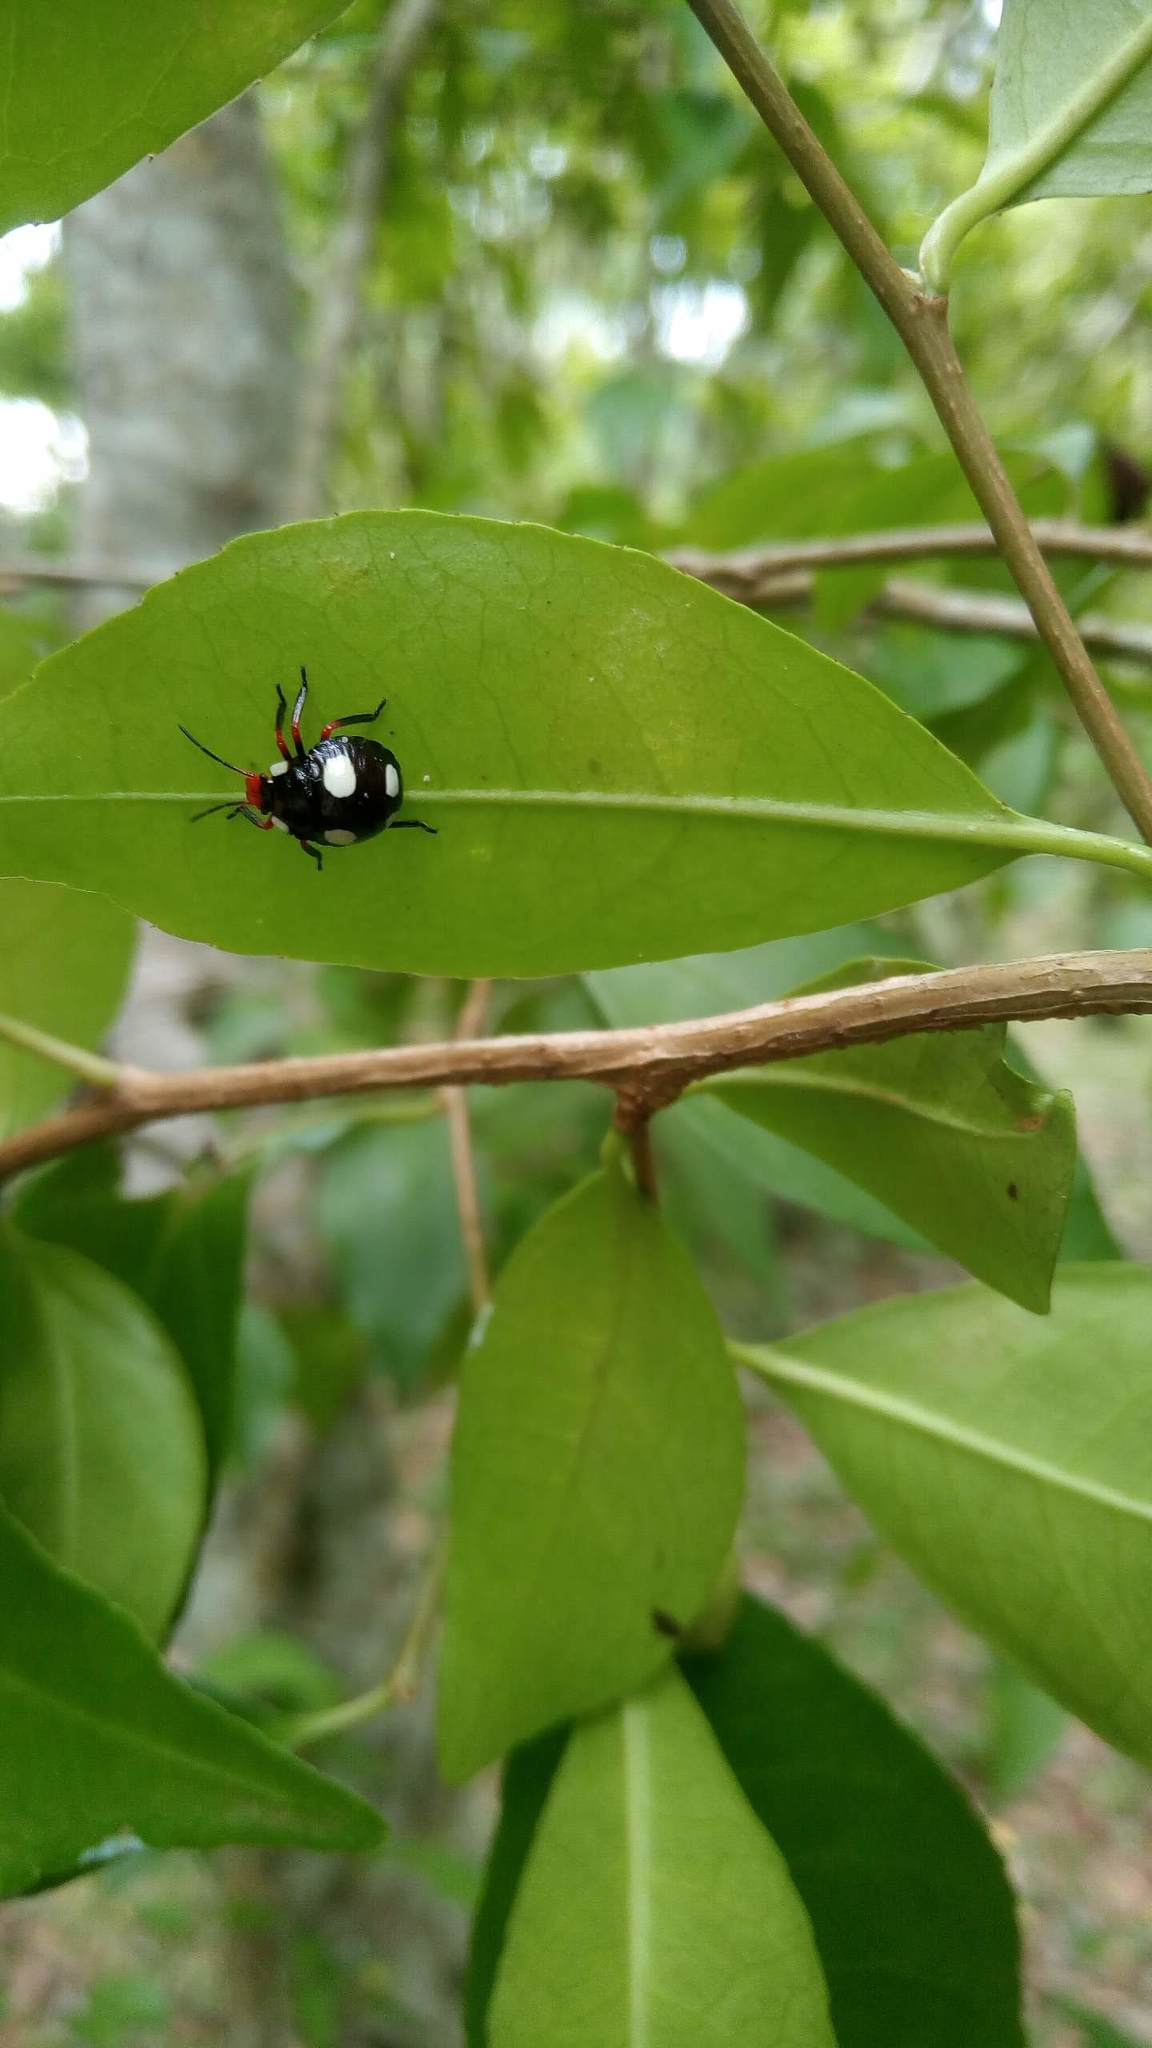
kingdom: Animalia
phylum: Arthropoda
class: Insecta
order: Hemiptera
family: Pentatomidae
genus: Chinavia
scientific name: Chinavia erythrocnemis
